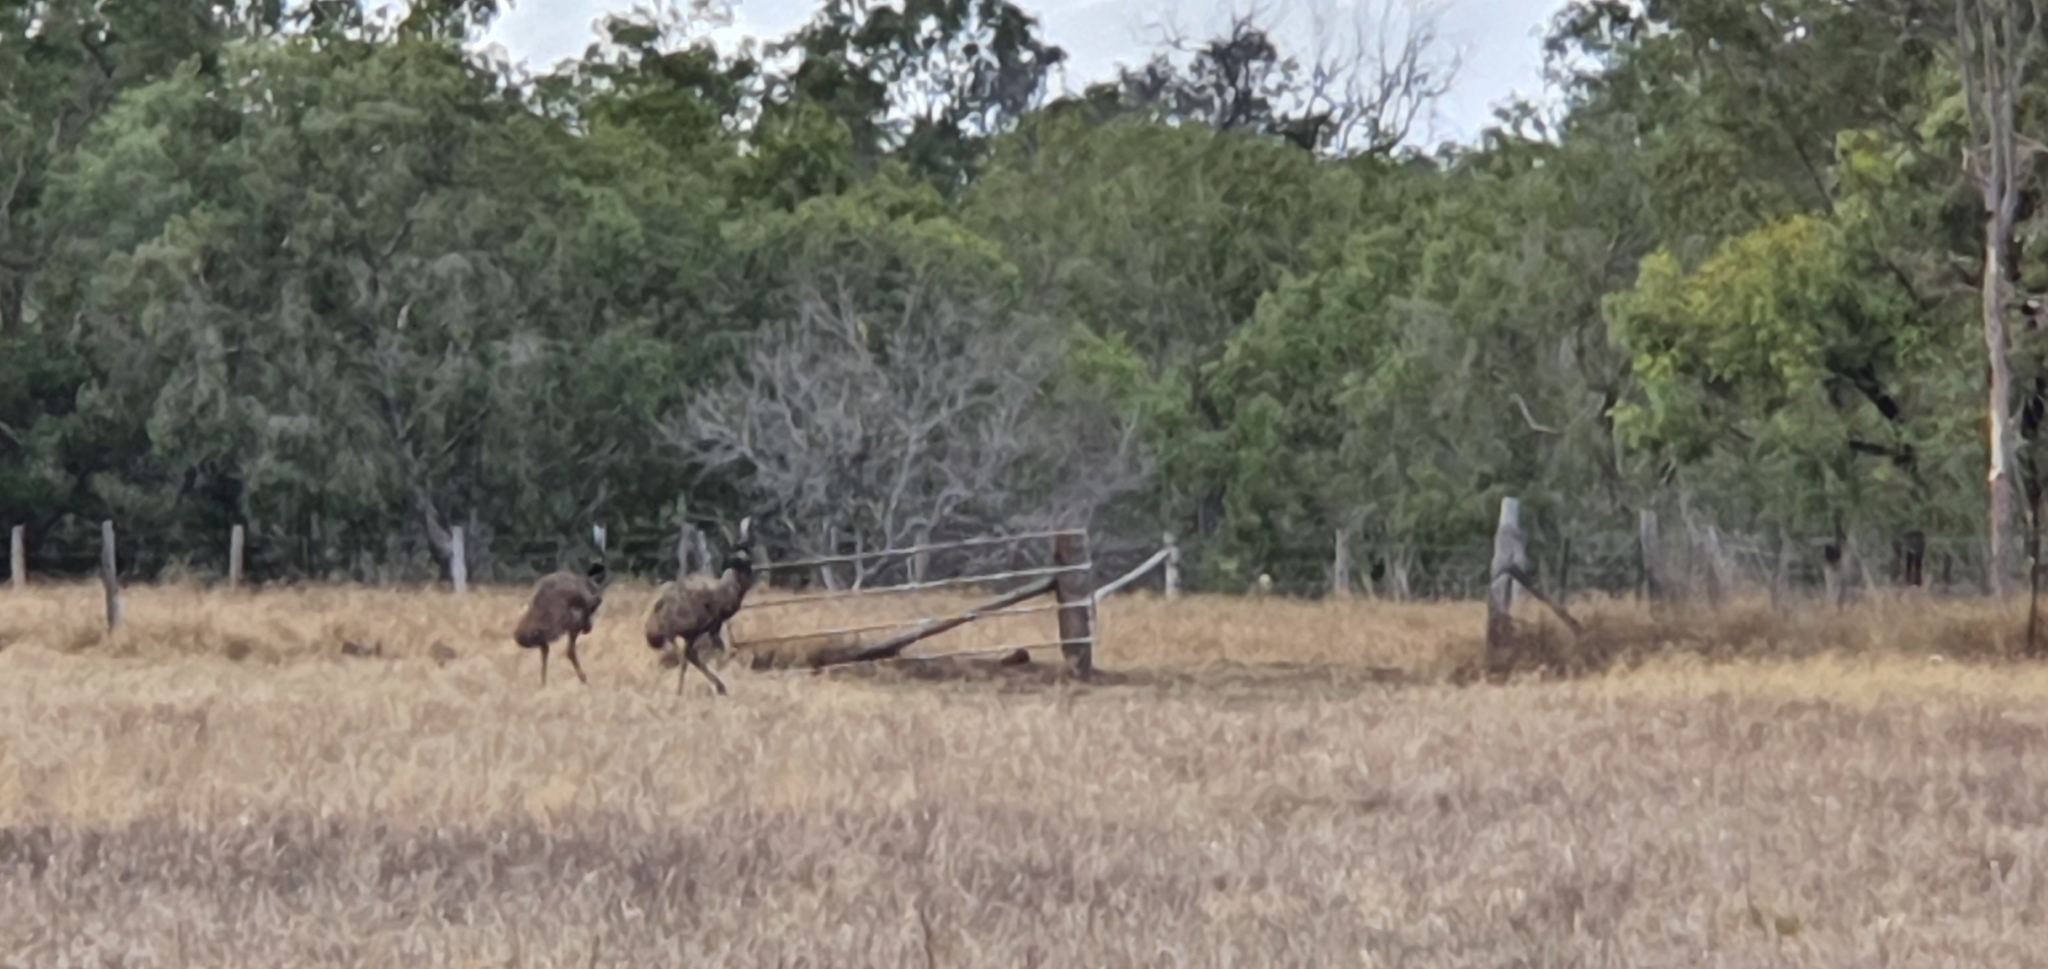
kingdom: Animalia
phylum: Chordata
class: Aves
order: Casuariiformes
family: Dromaiidae
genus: Dromaius
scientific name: Dromaius novaehollandiae
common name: Emu
